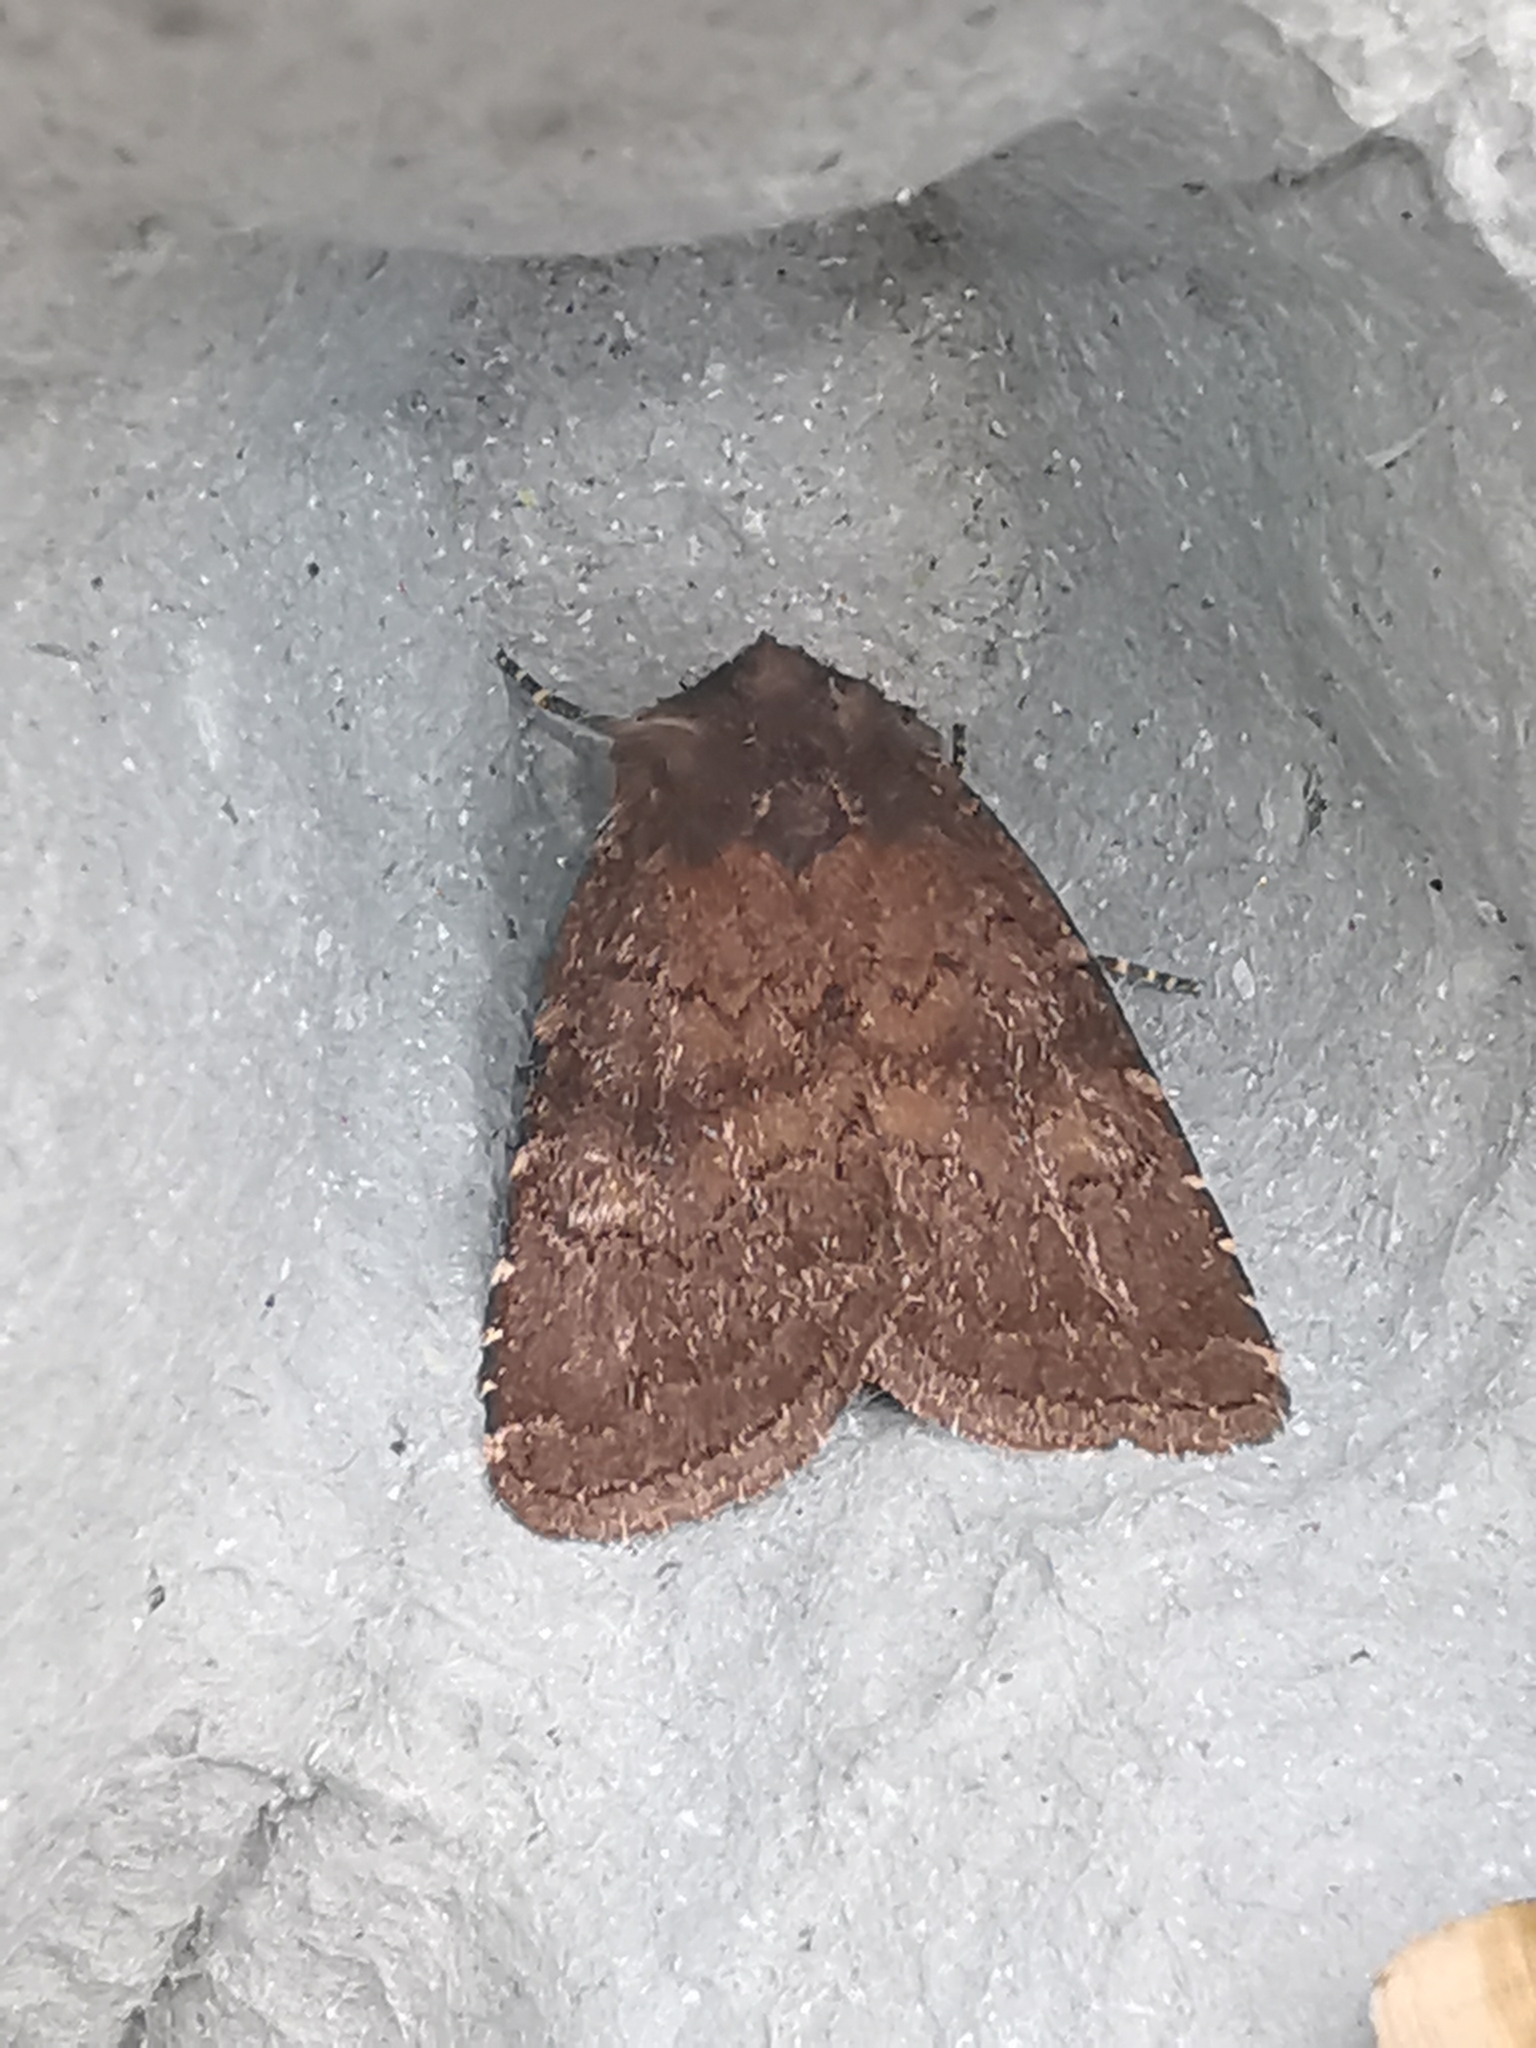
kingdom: Animalia
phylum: Arthropoda
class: Insecta
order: Lepidoptera
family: Noctuidae
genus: Charanyca
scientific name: Charanyca ferruginea
